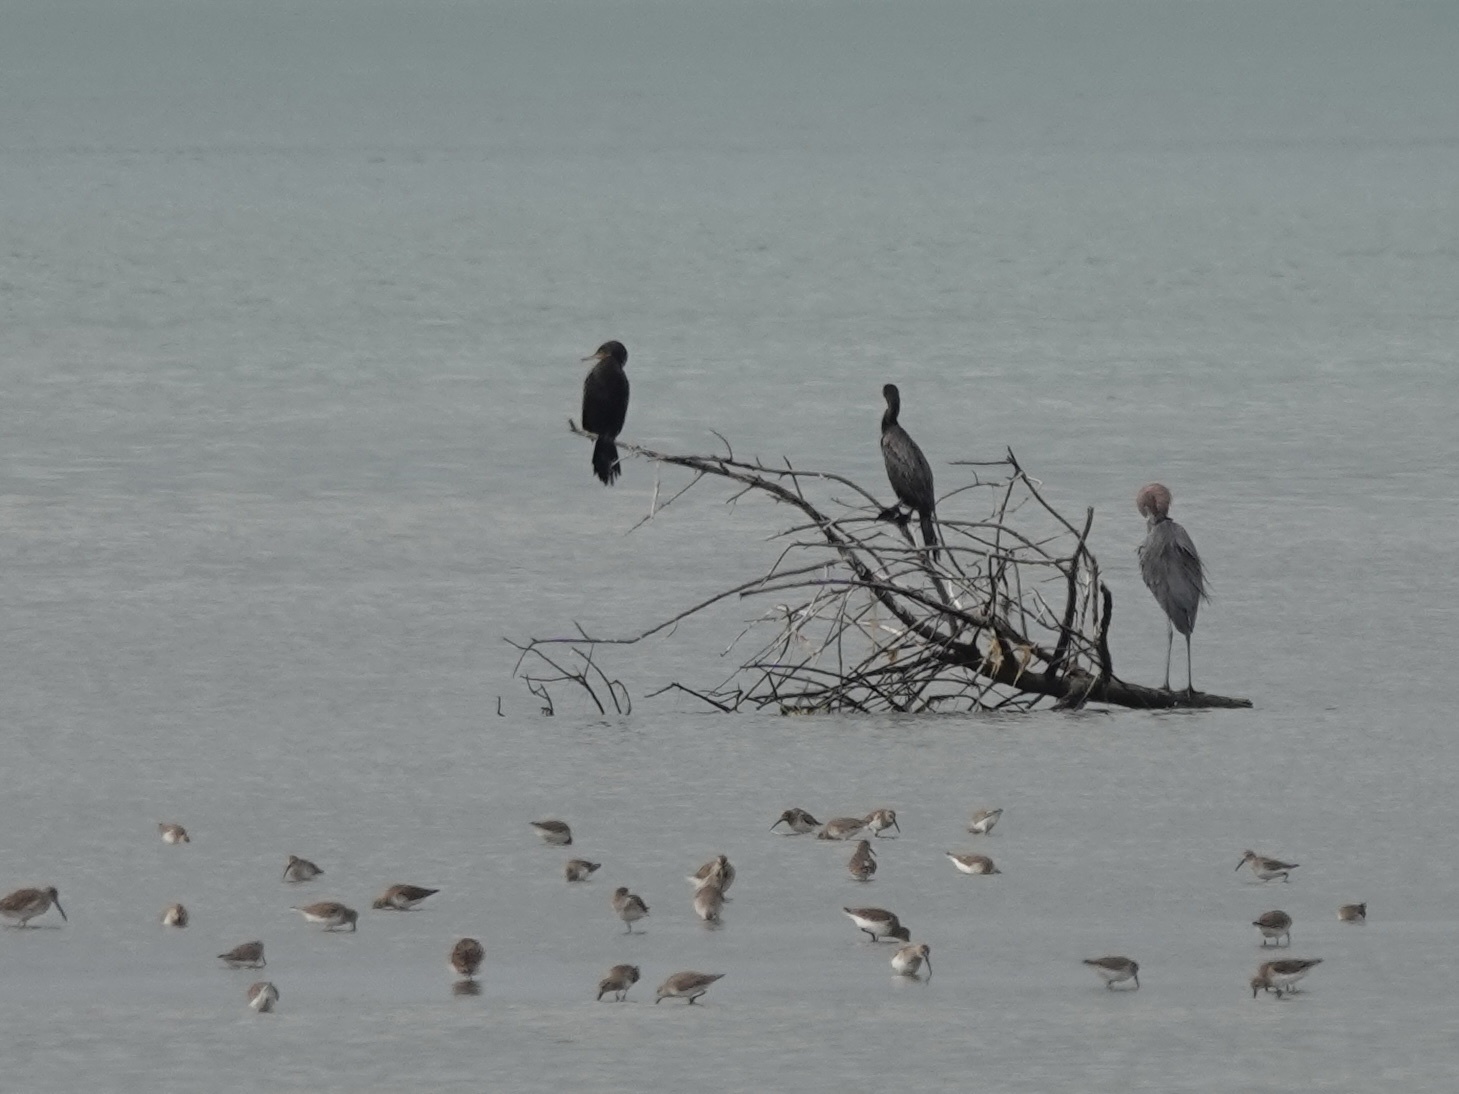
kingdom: Animalia
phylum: Chordata
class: Aves
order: Suliformes
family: Phalacrocoracidae
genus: Phalacrocorax
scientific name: Phalacrocorax brasilianus
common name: Neotropic cormorant
